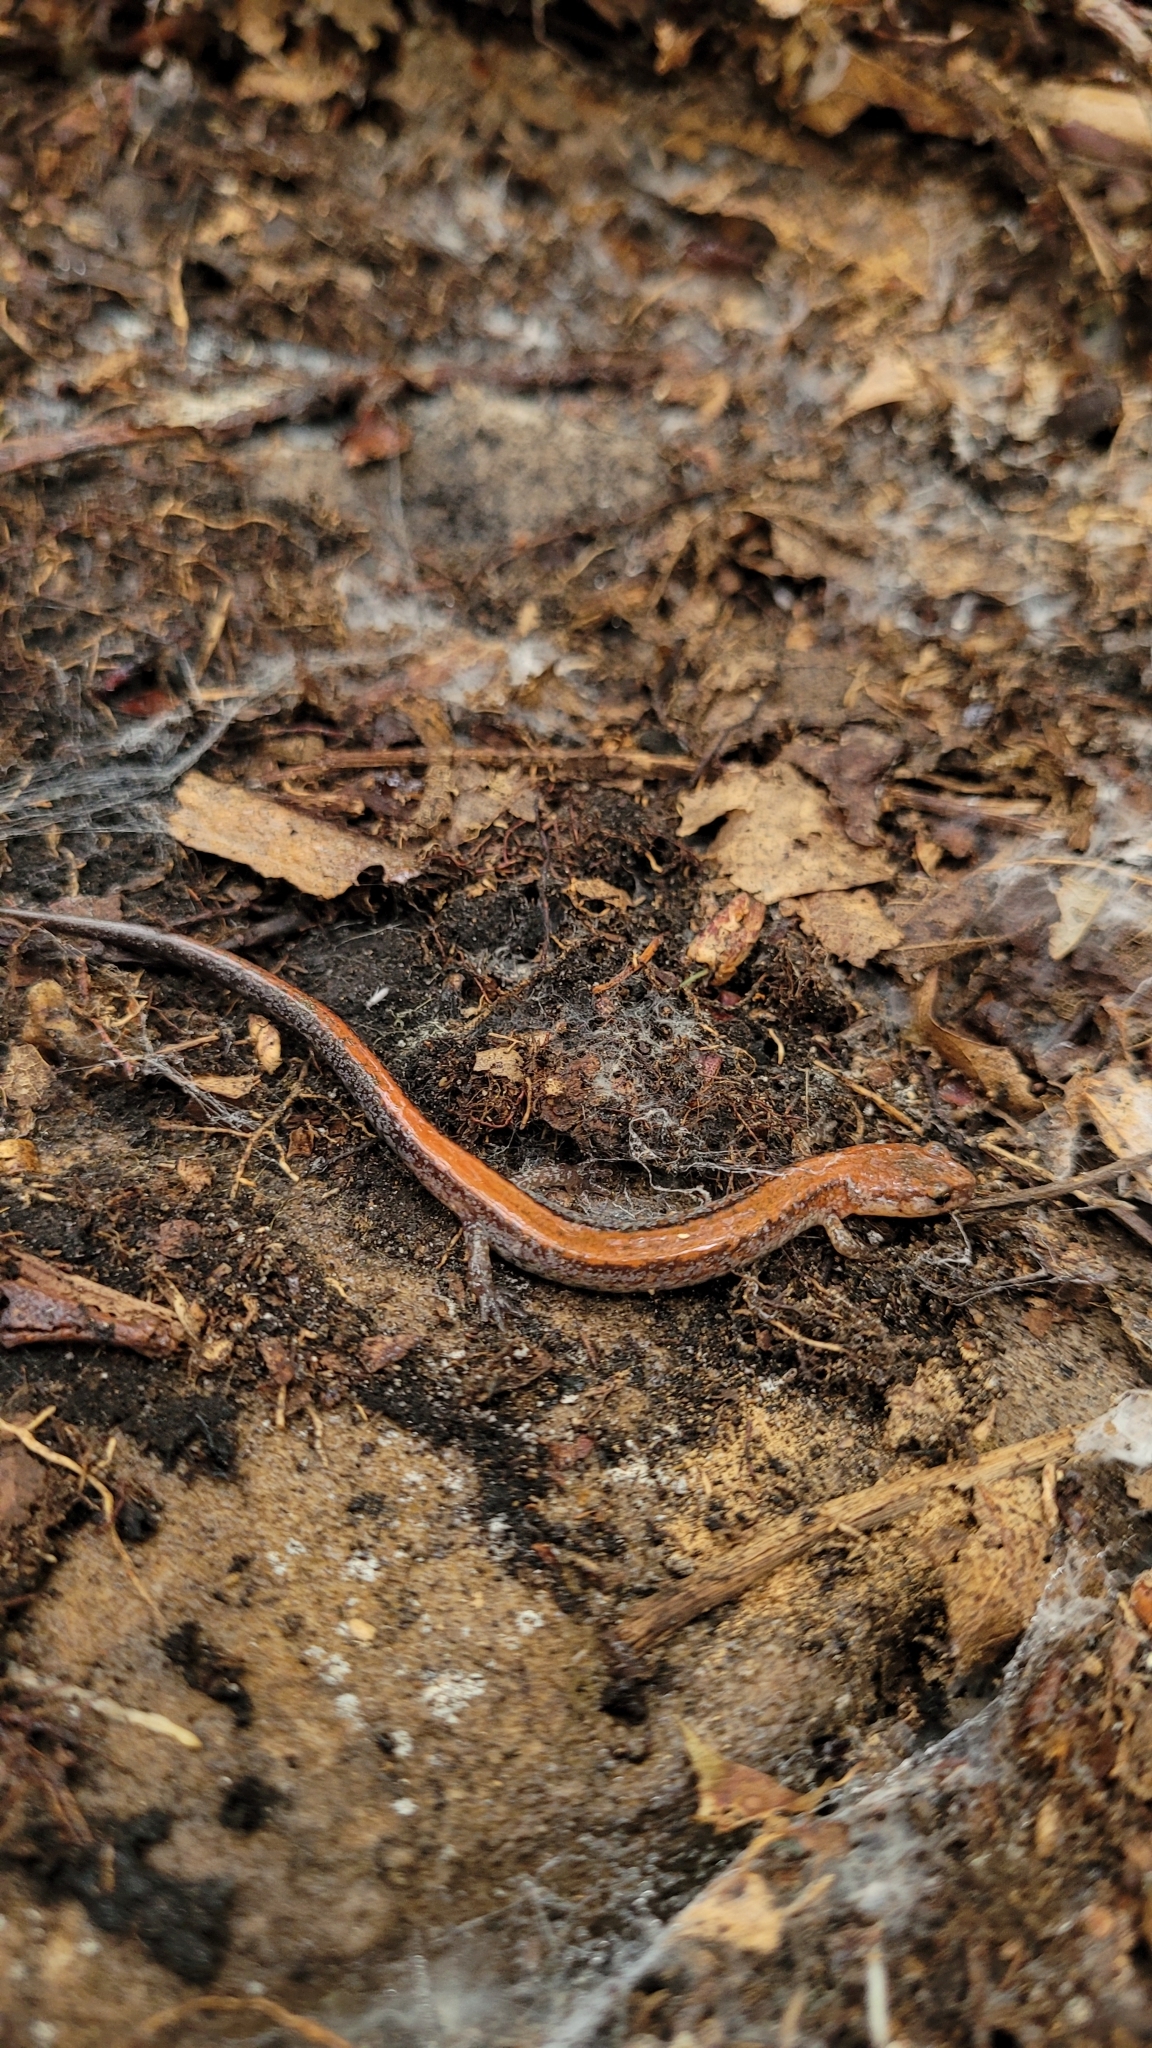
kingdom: Animalia
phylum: Chordata
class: Amphibia
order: Caudata
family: Plethodontidae
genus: Plethodon
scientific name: Plethodon cinereus
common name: Redback salamander
